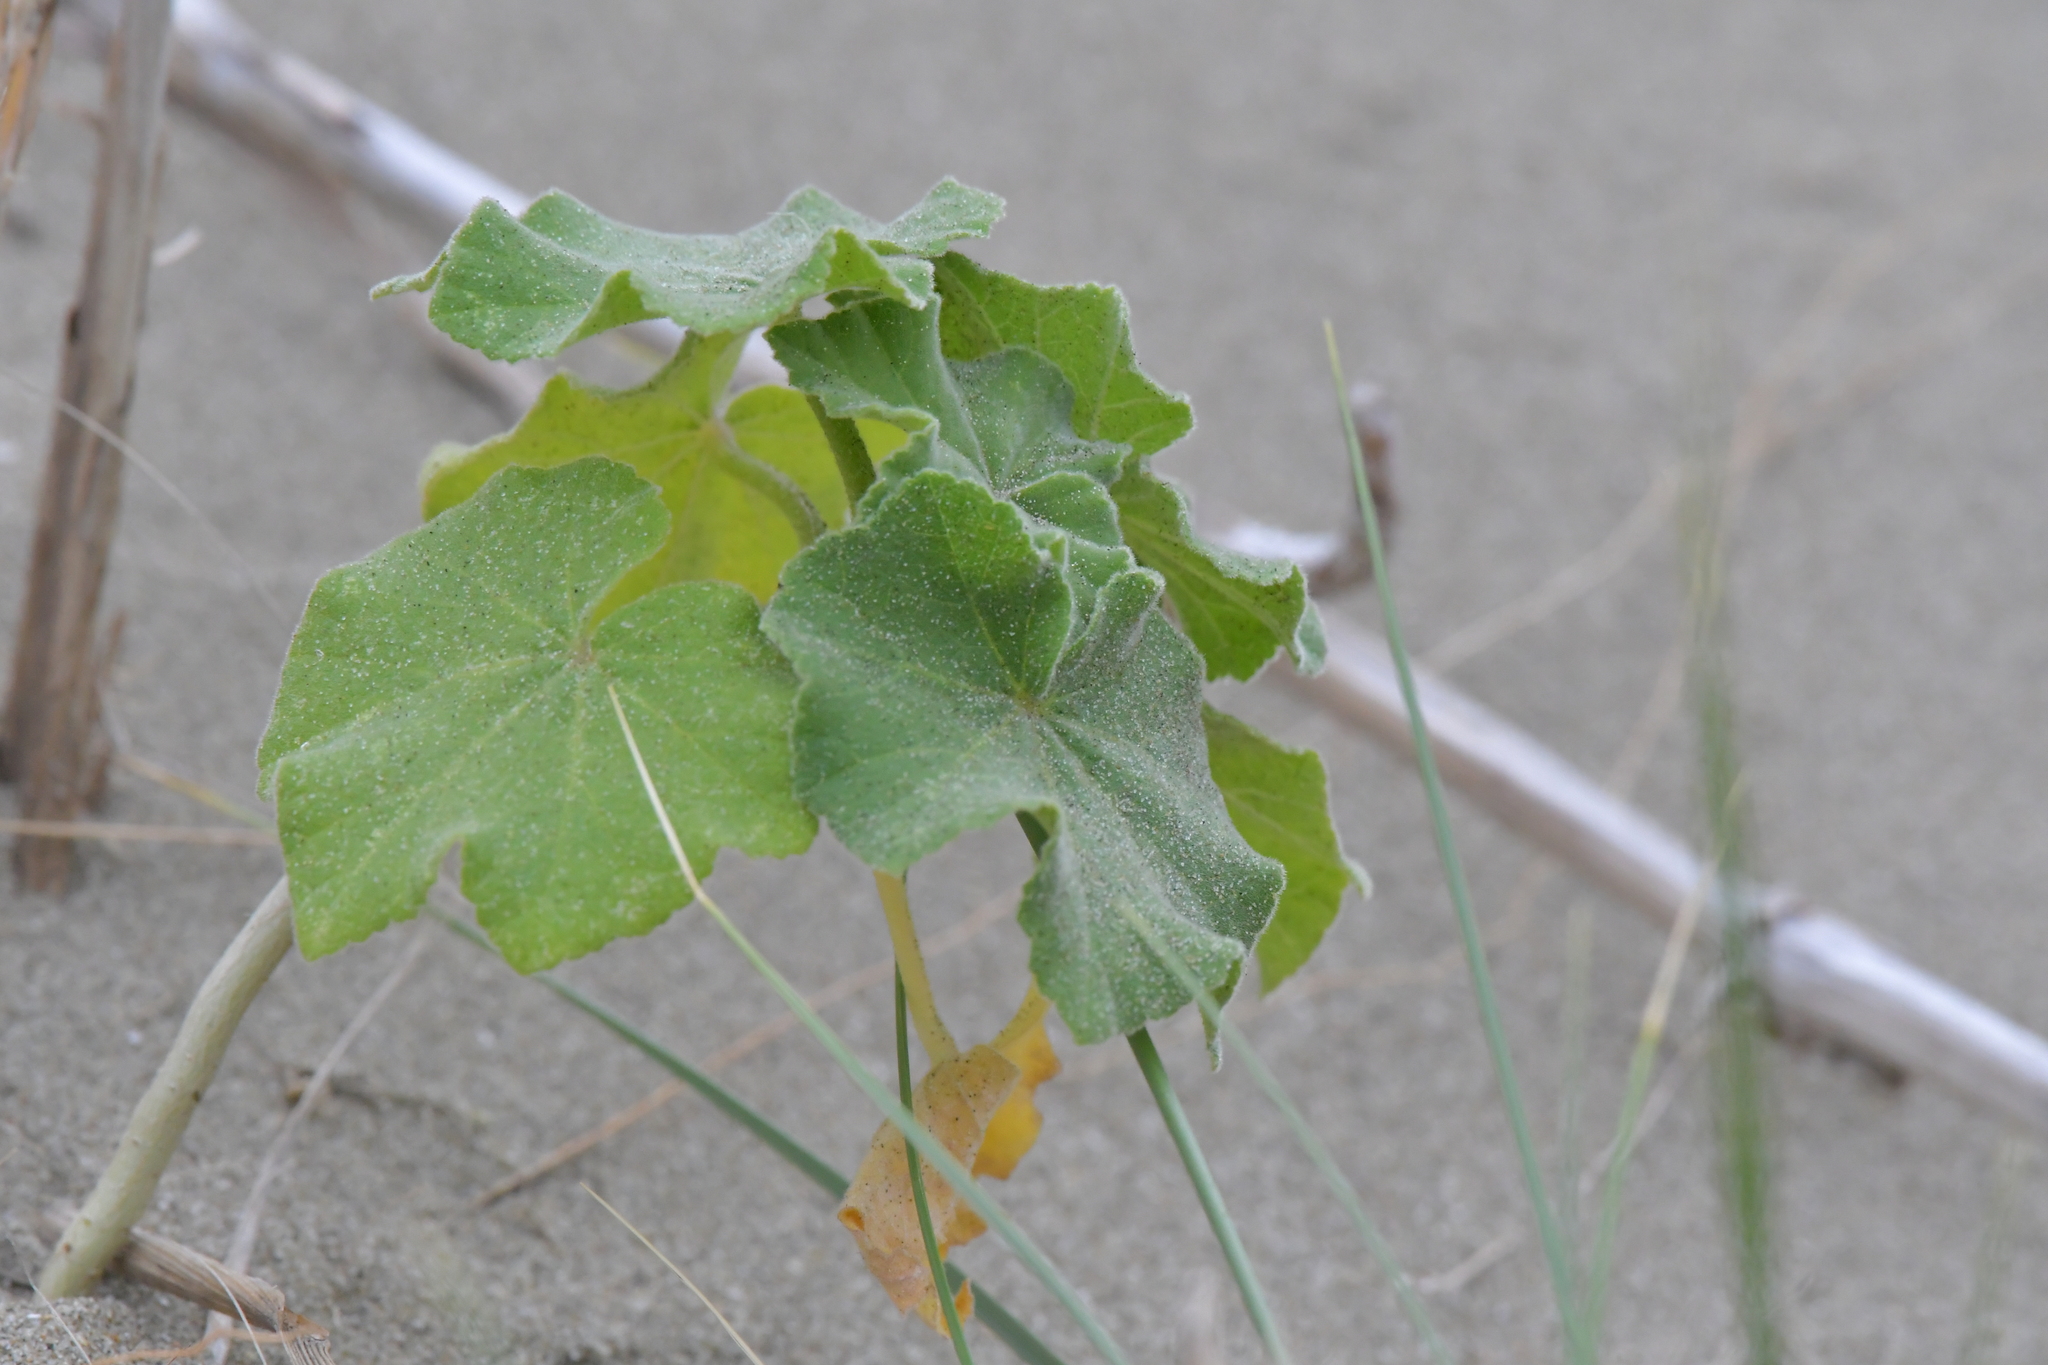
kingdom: Plantae
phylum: Tracheophyta
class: Magnoliopsida
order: Malvales
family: Malvaceae
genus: Malva
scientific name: Malva arborea
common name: Tree mallow
